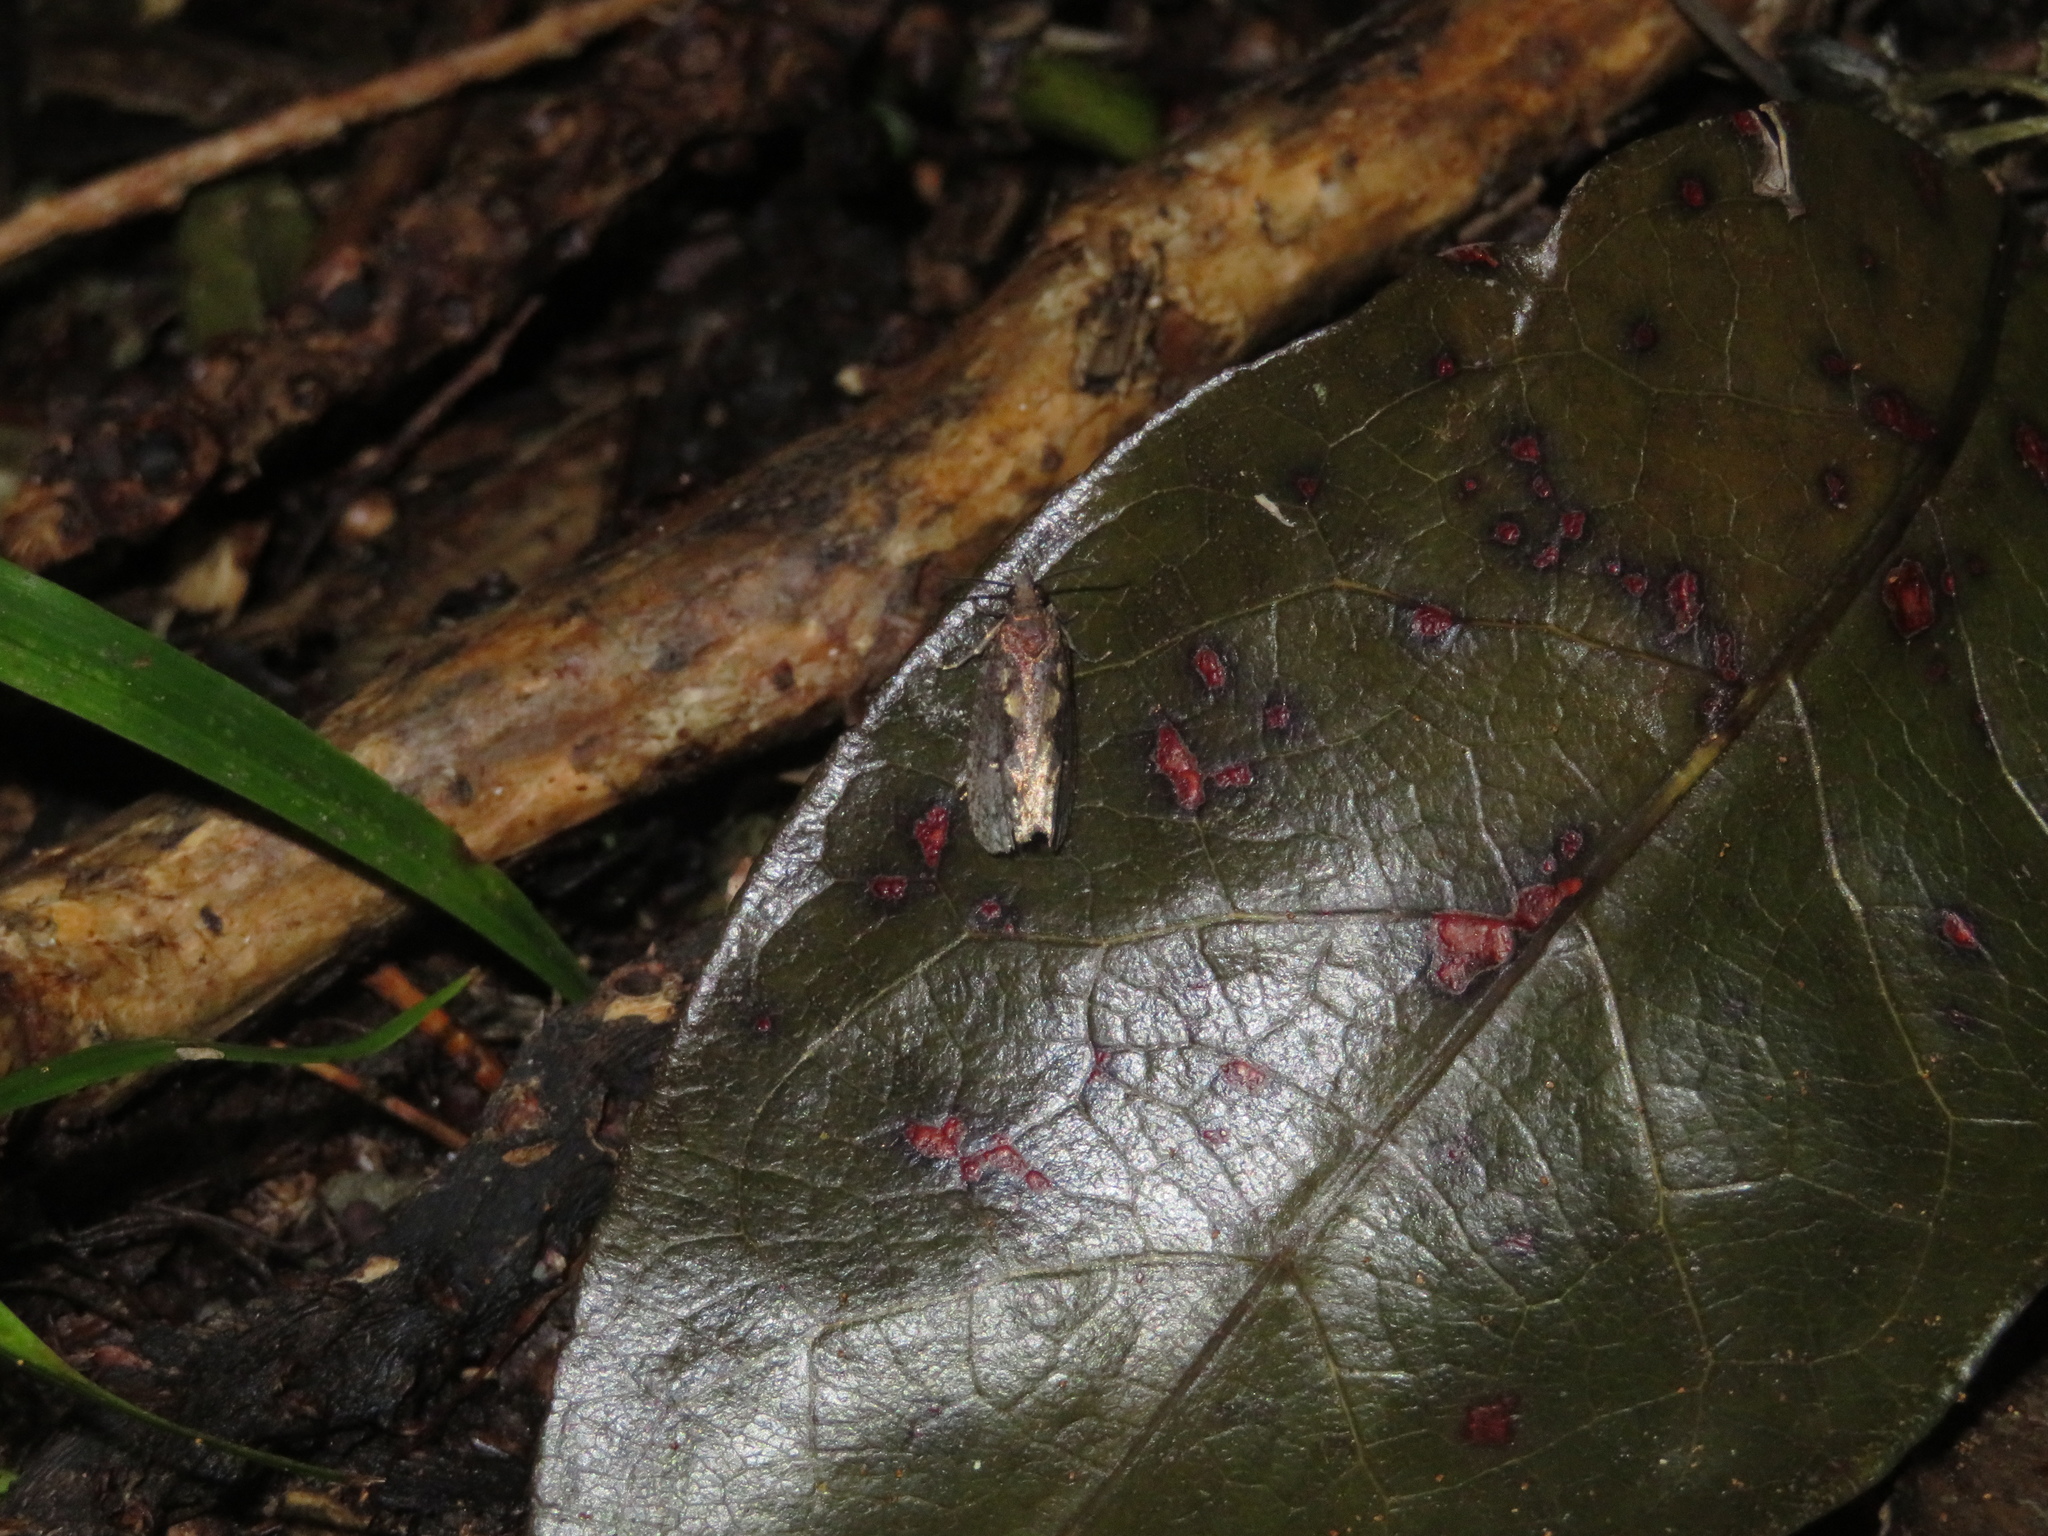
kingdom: Animalia
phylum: Arthropoda
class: Insecta
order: Lepidoptera
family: Tortricidae
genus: Cryptaspasma
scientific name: Cryptaspasma querula
